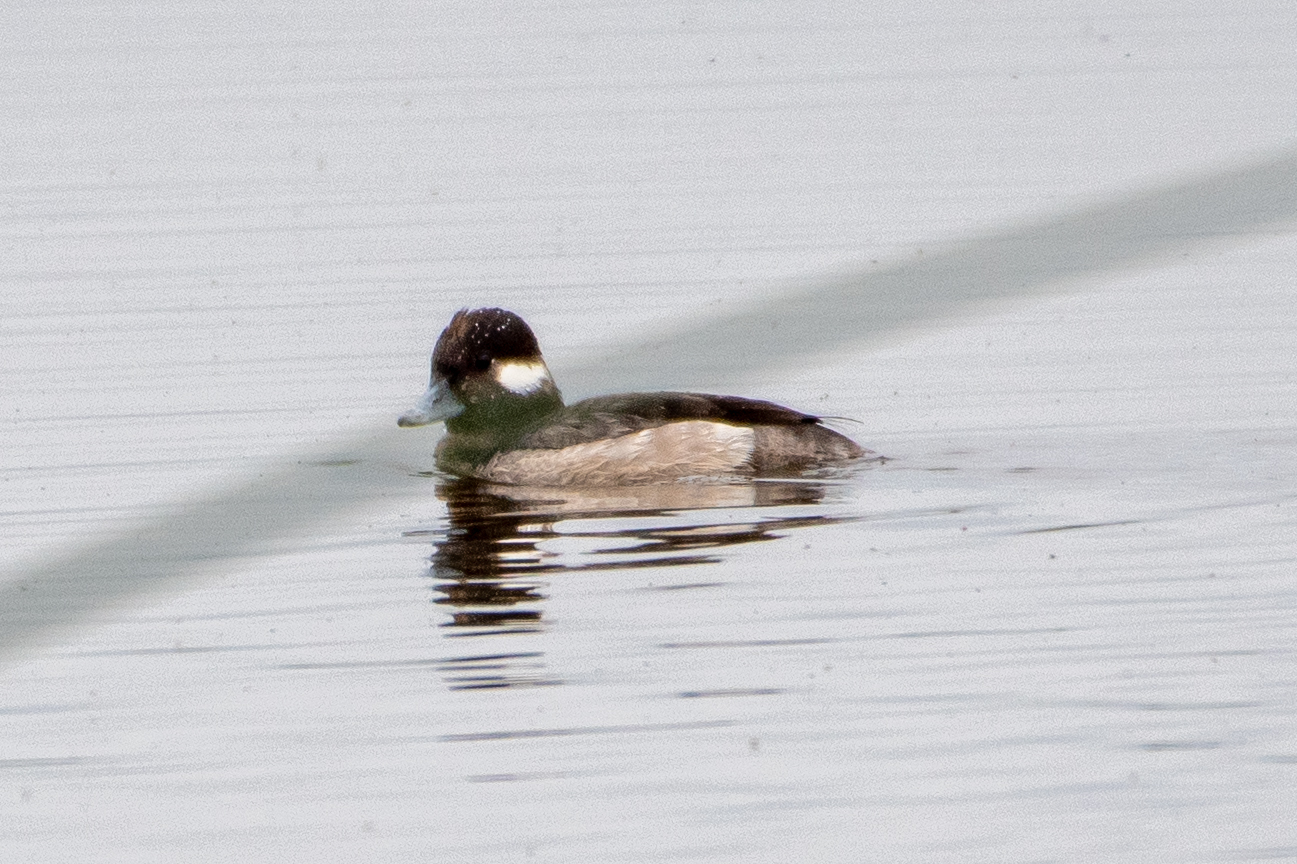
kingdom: Animalia
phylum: Chordata
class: Aves
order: Anseriformes
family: Anatidae
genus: Bucephala
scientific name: Bucephala albeola
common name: Bufflehead
